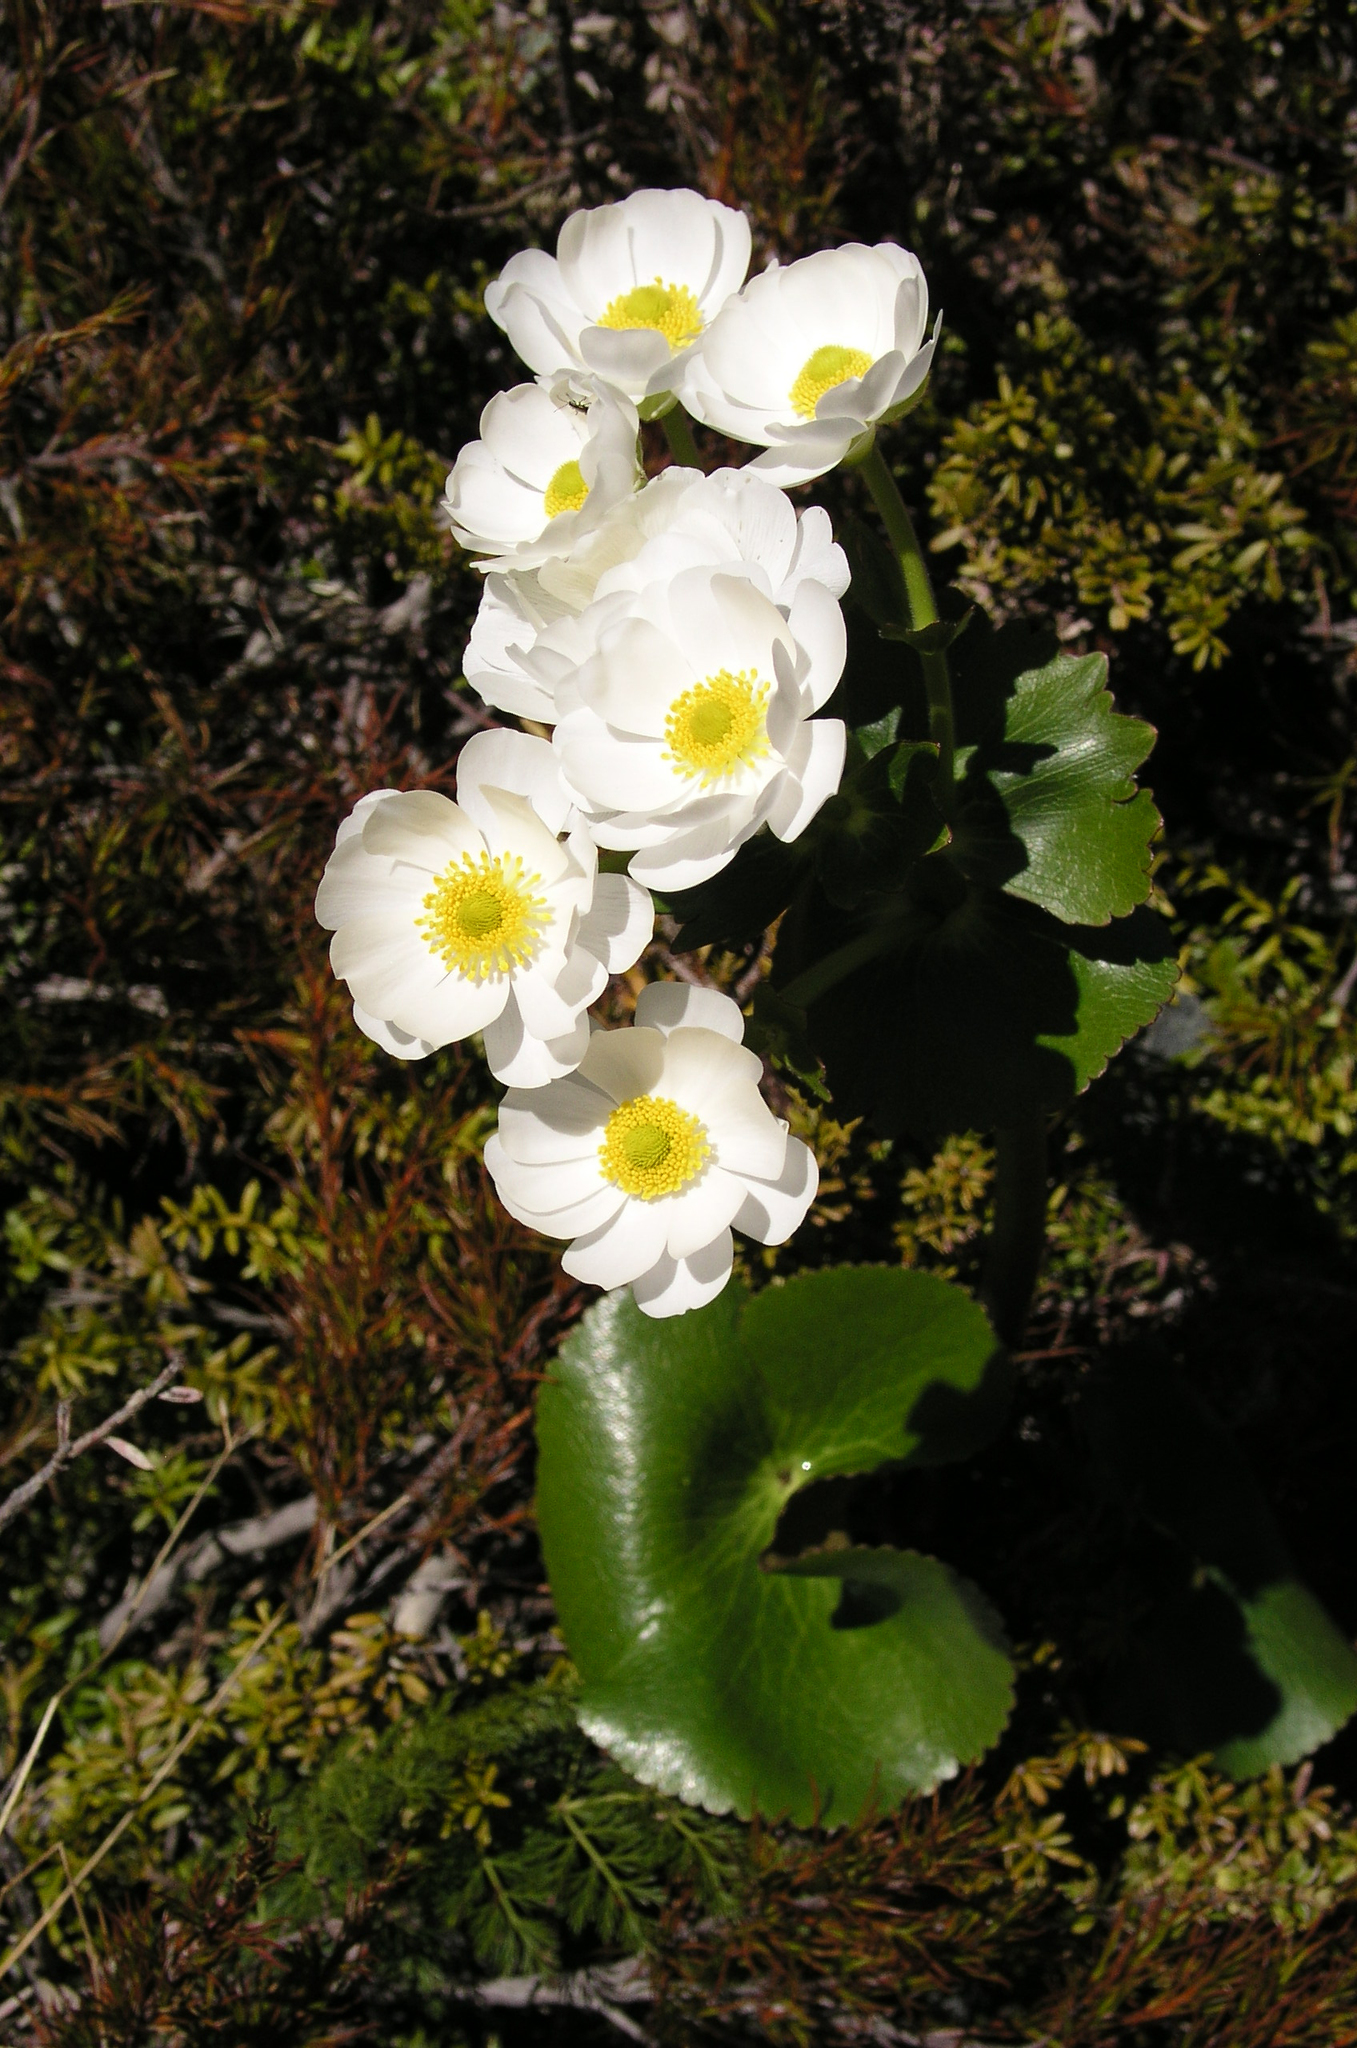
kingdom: Plantae
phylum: Tracheophyta
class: Magnoliopsida
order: Ranunculales
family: Ranunculaceae
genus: Ranunculus
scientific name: Ranunculus lyallii
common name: Mountain-lily
